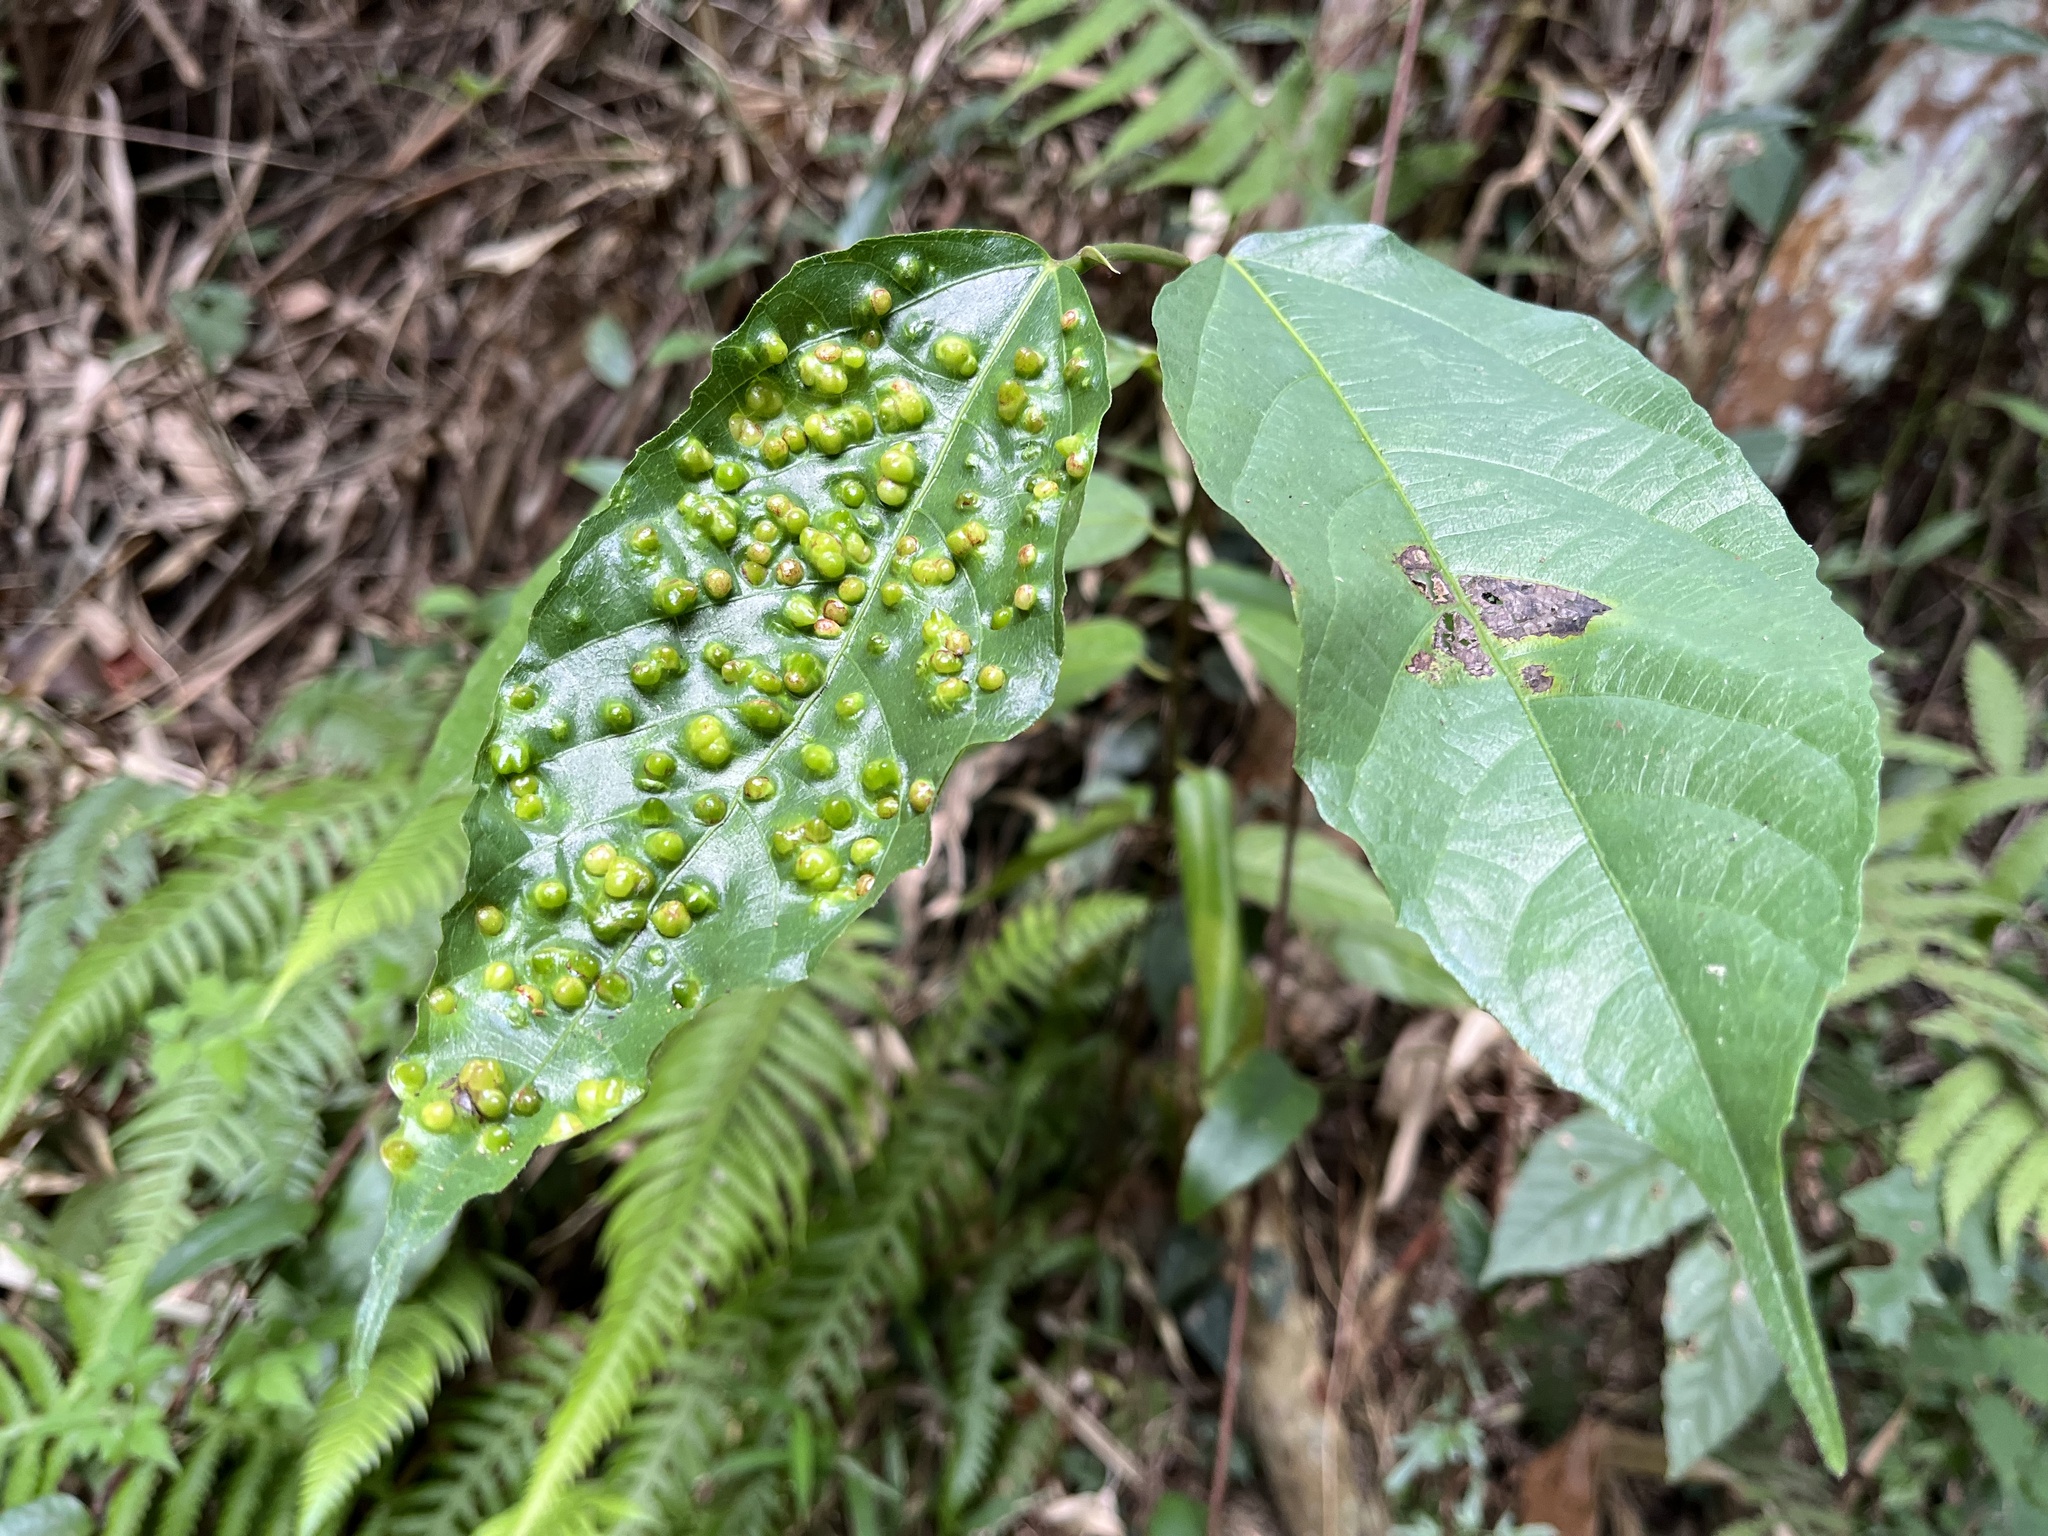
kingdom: Plantae
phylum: Tracheophyta
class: Magnoliopsida
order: Rosales
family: Moraceae
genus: Ficus
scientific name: Ficus ampelos
